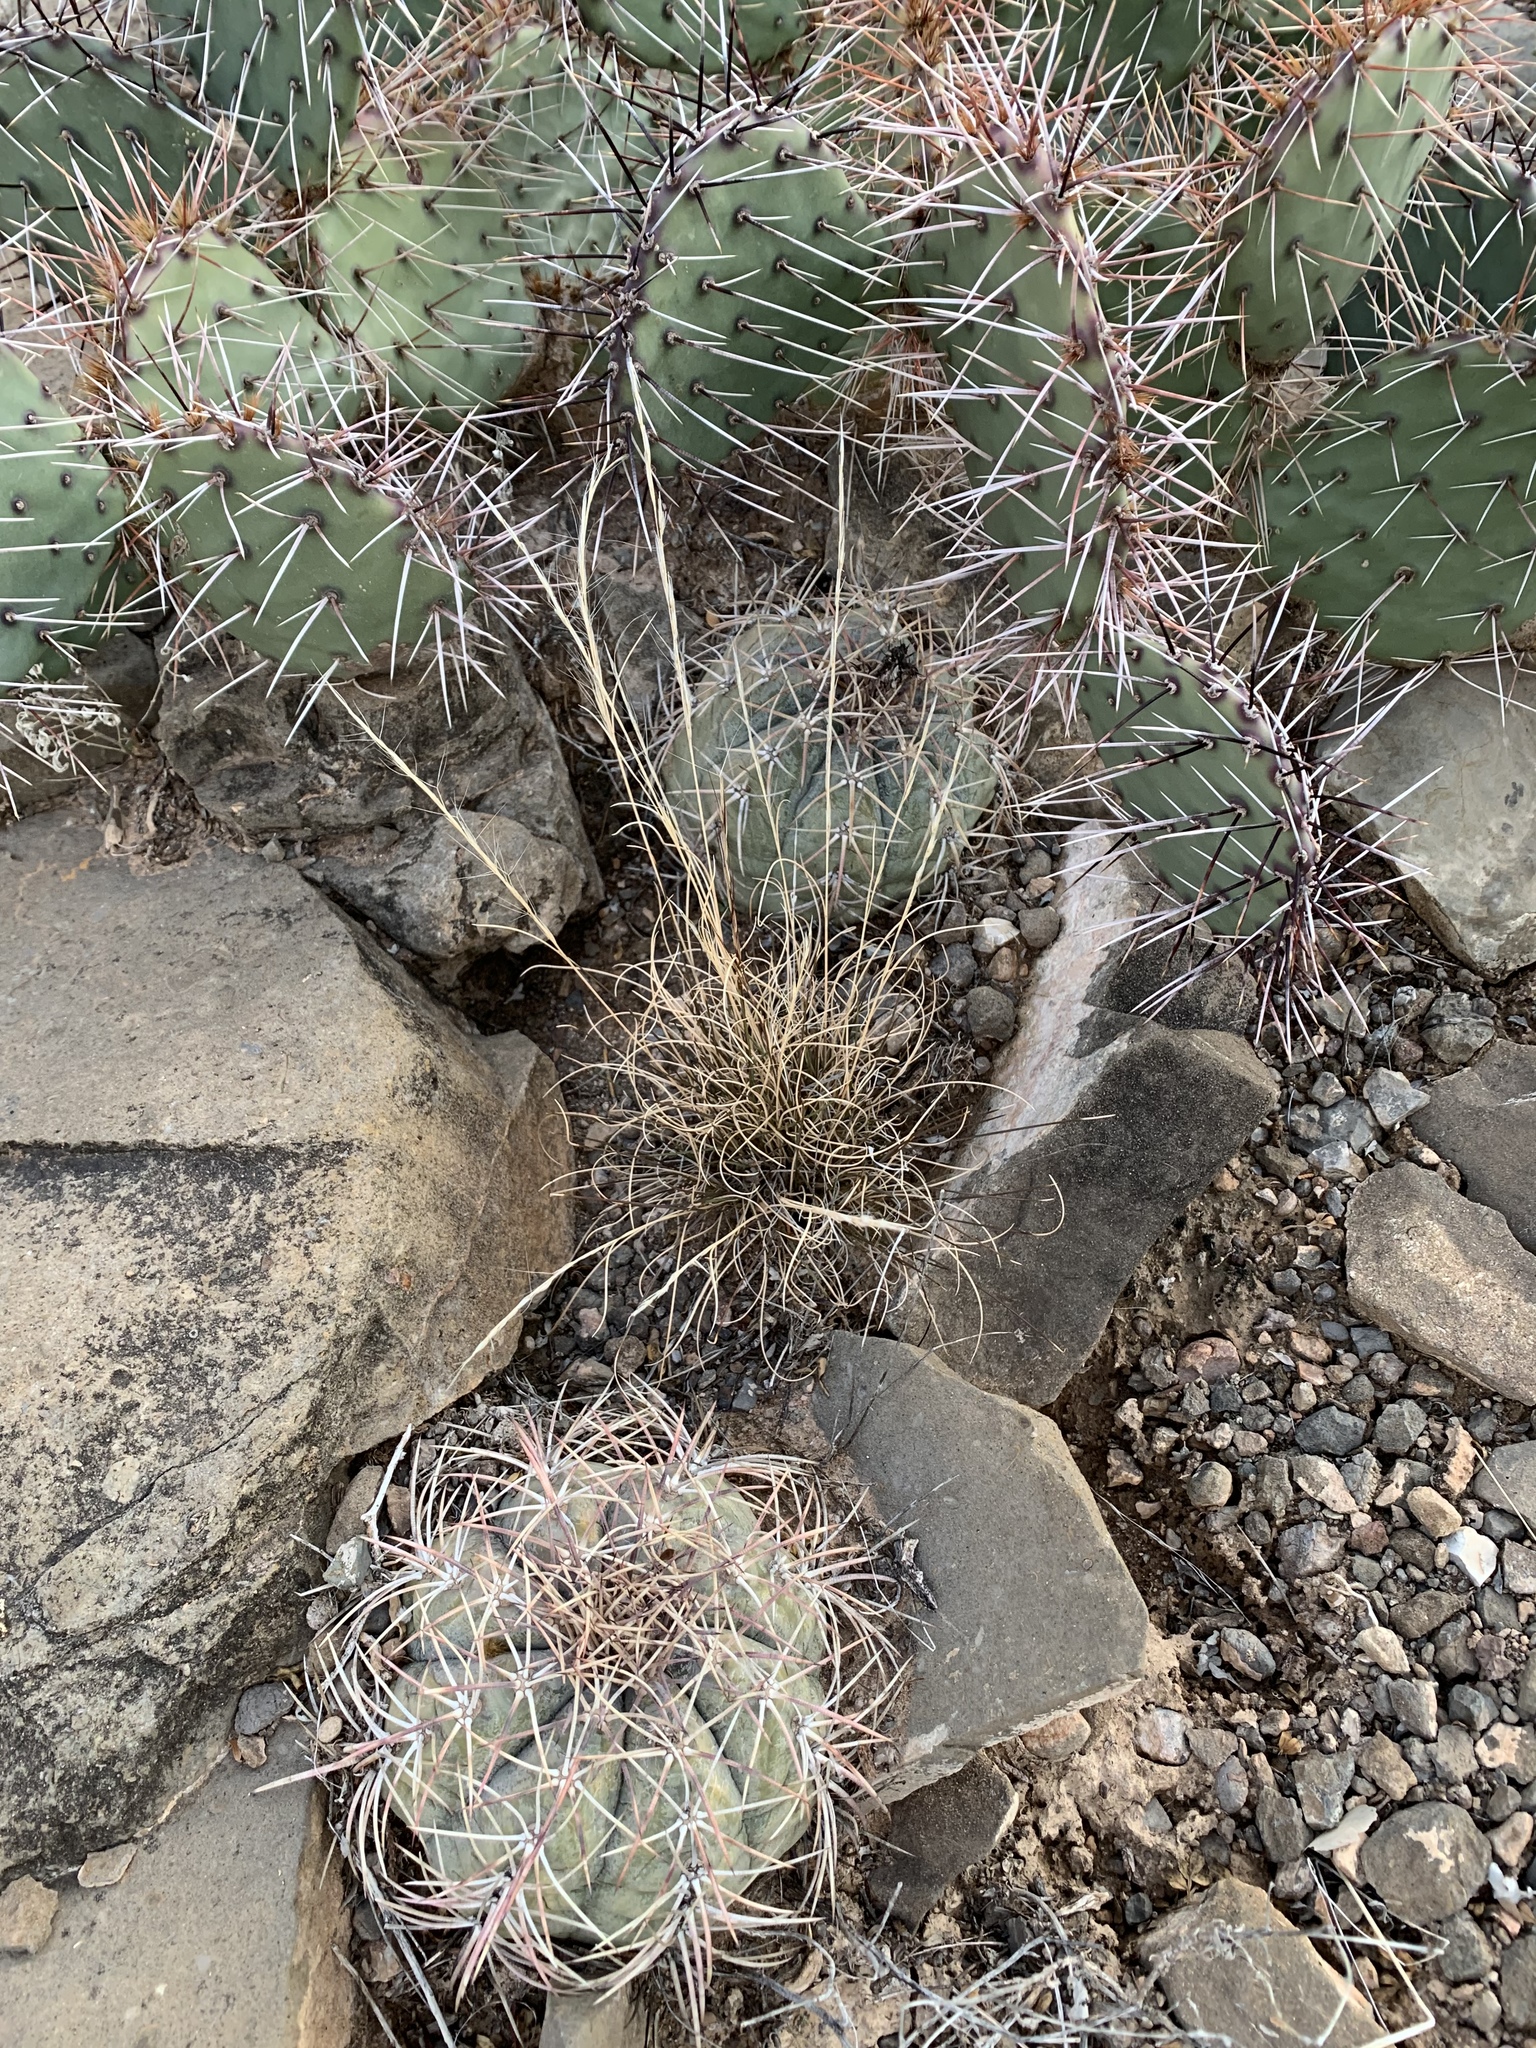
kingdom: Plantae
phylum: Tracheophyta
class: Magnoliopsida
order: Caryophyllales
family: Cactaceae
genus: Echinocactus
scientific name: Echinocactus horizonthalonius
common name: Devilshead
